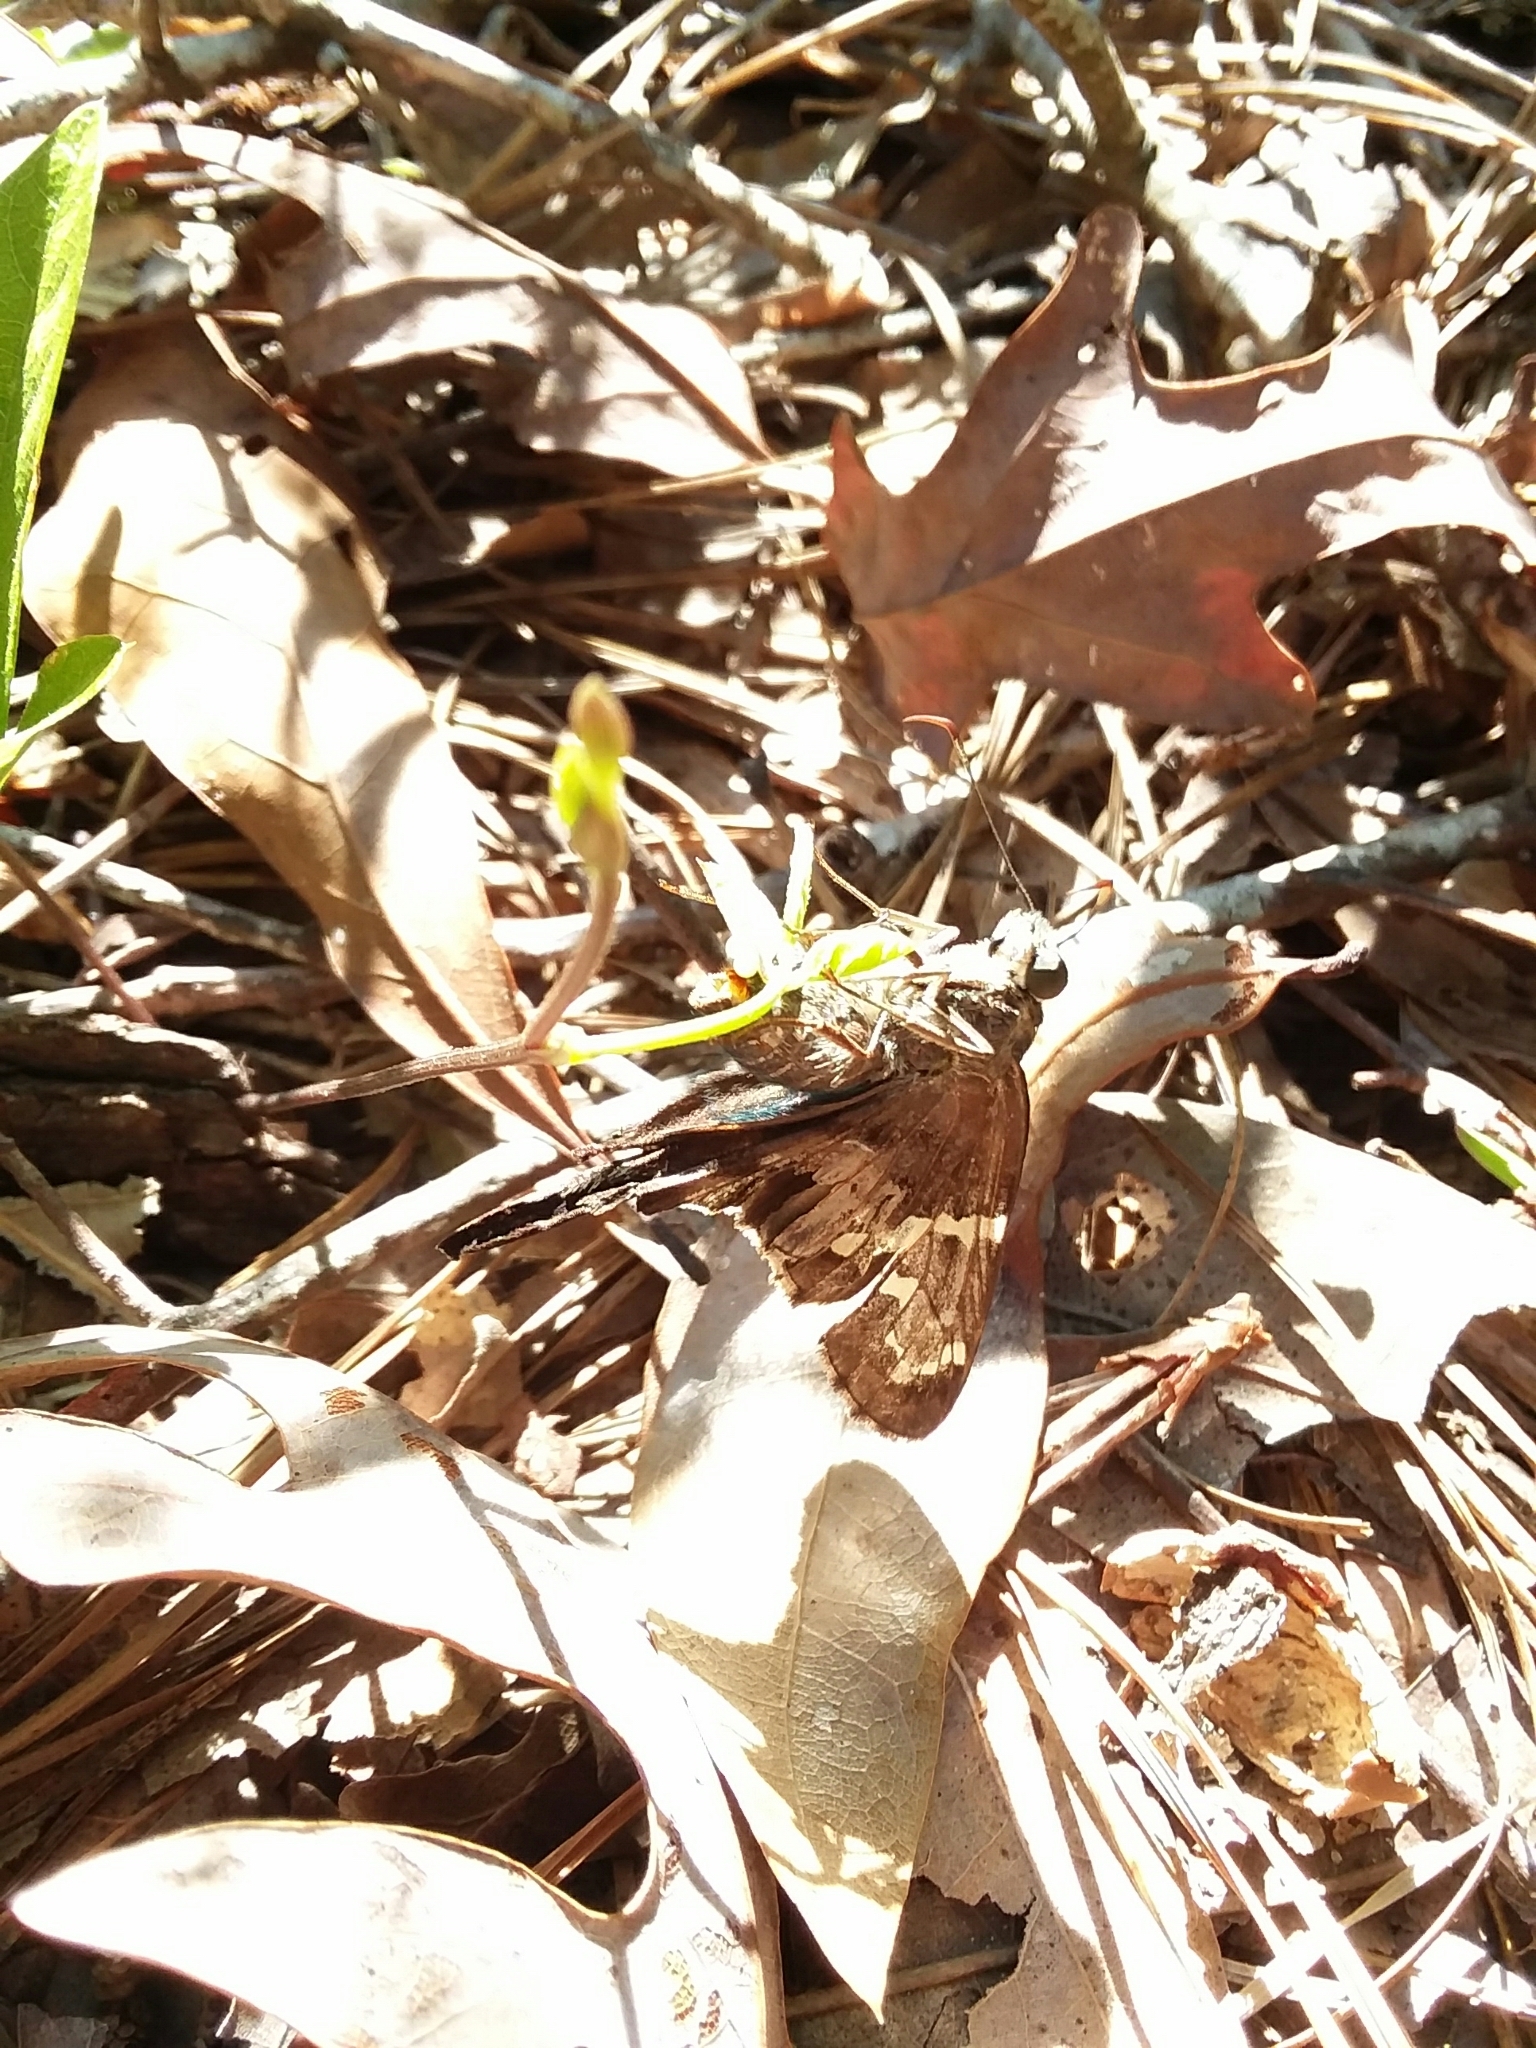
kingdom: Animalia
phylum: Arthropoda
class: Insecta
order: Lepidoptera
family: Hesperiidae
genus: Urbanus
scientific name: Urbanus proteus
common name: Long-tailed skipper
